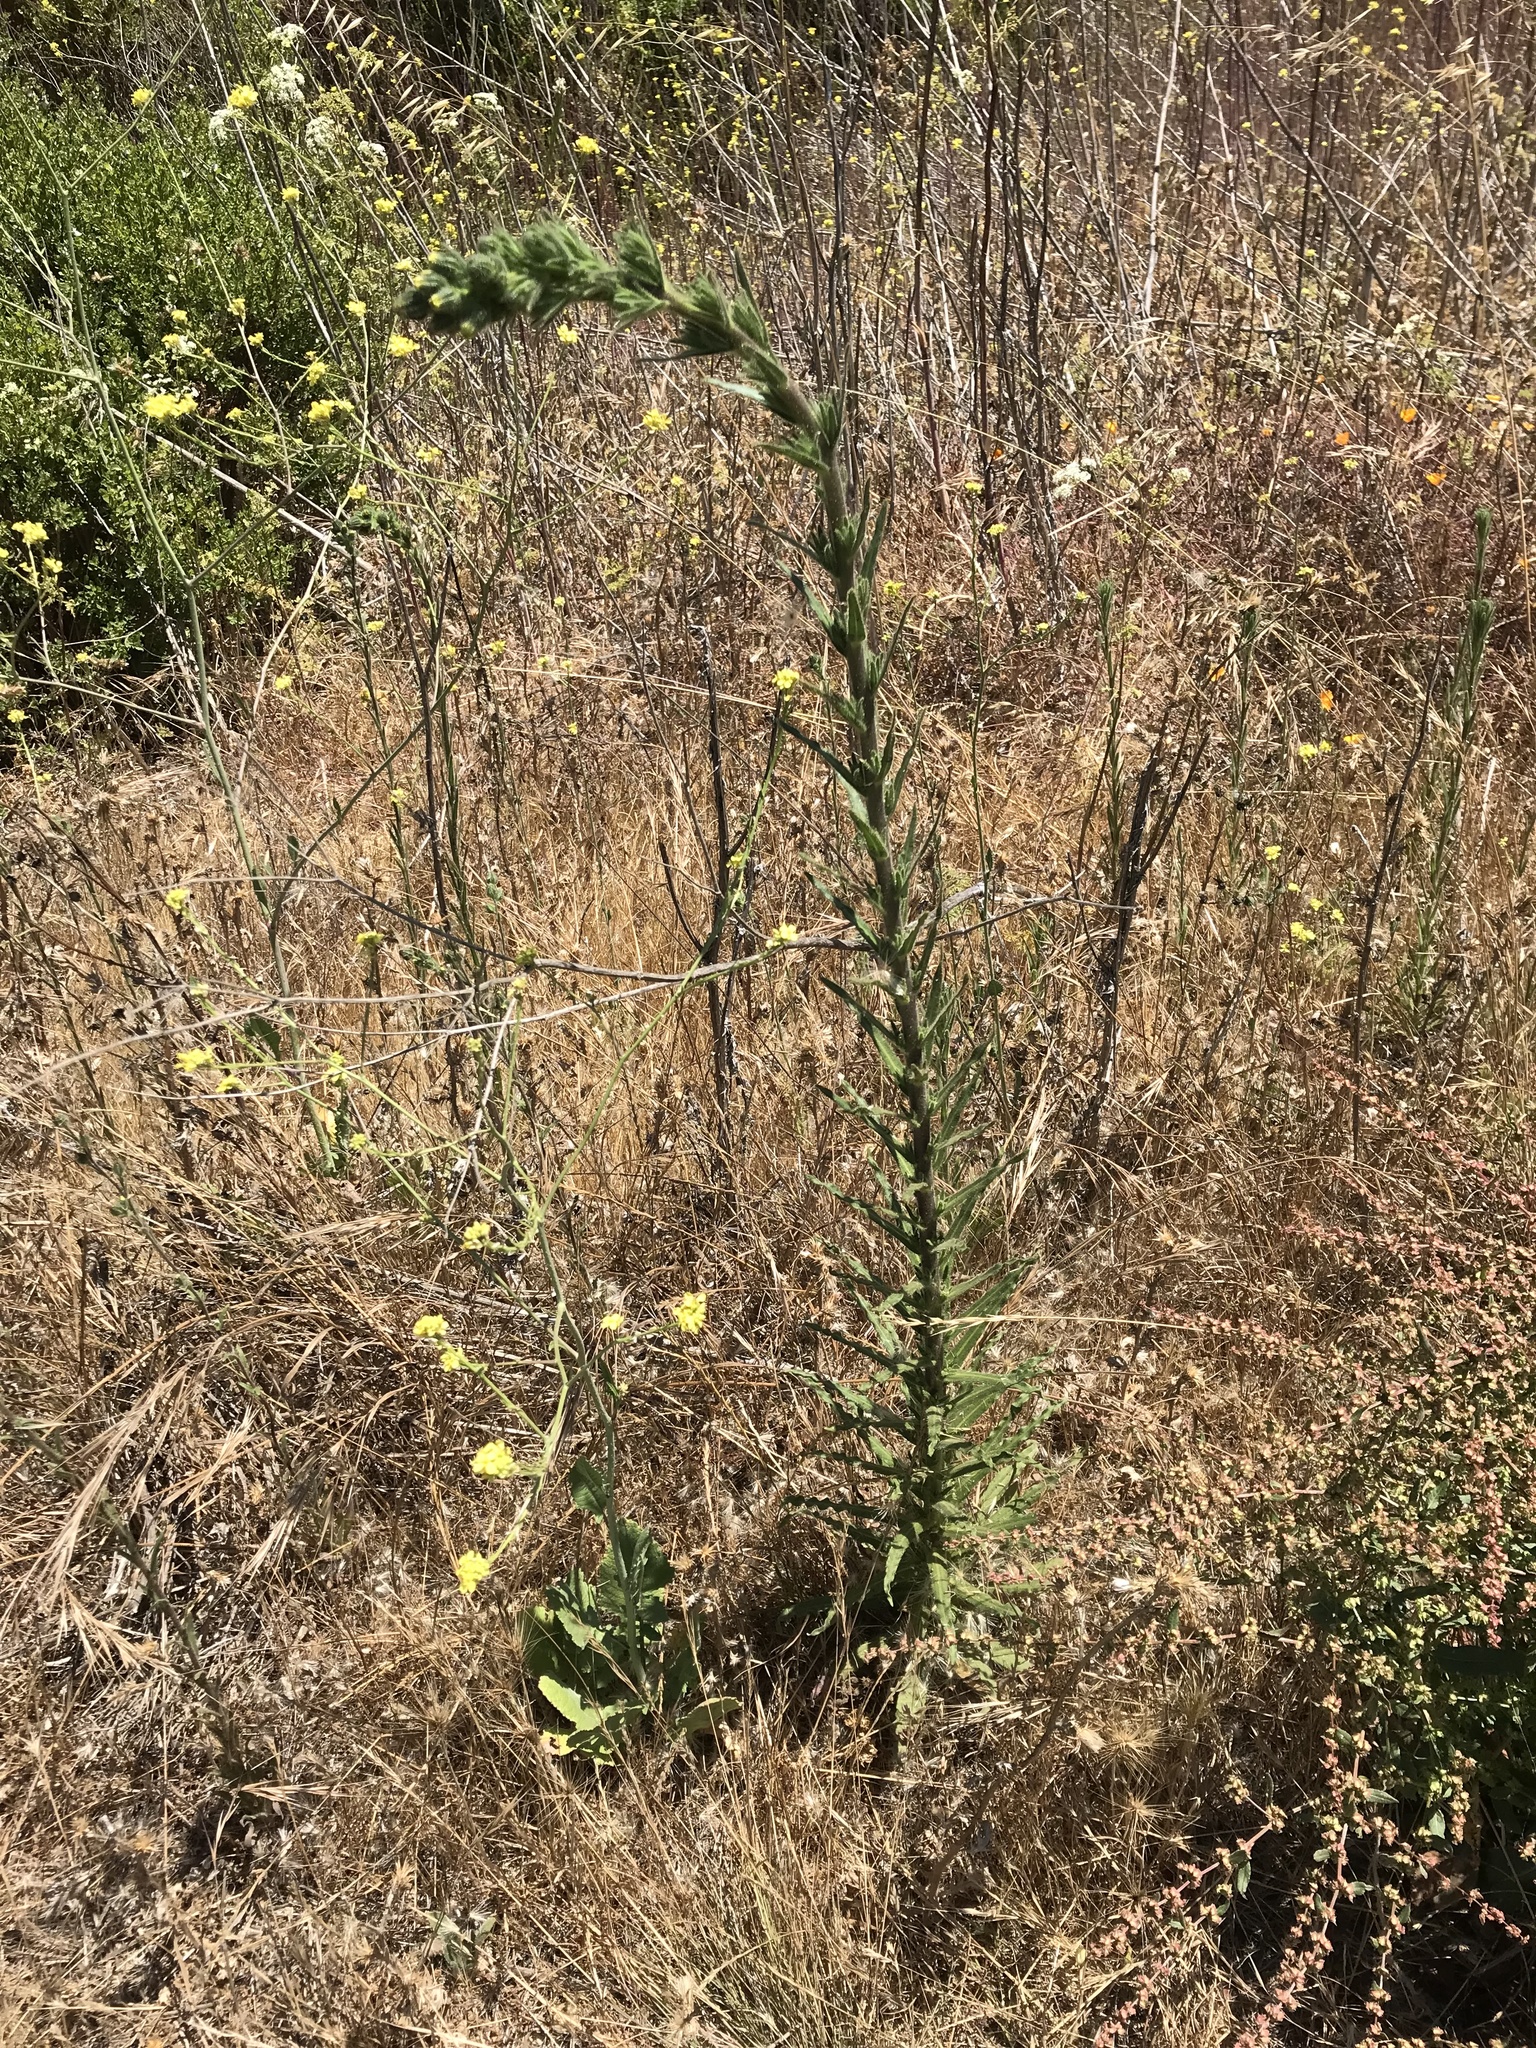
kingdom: Plantae
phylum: Tracheophyta
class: Magnoliopsida
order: Asterales
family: Asteraceae
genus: Madia
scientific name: Madia sativa
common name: Coast tarweed
